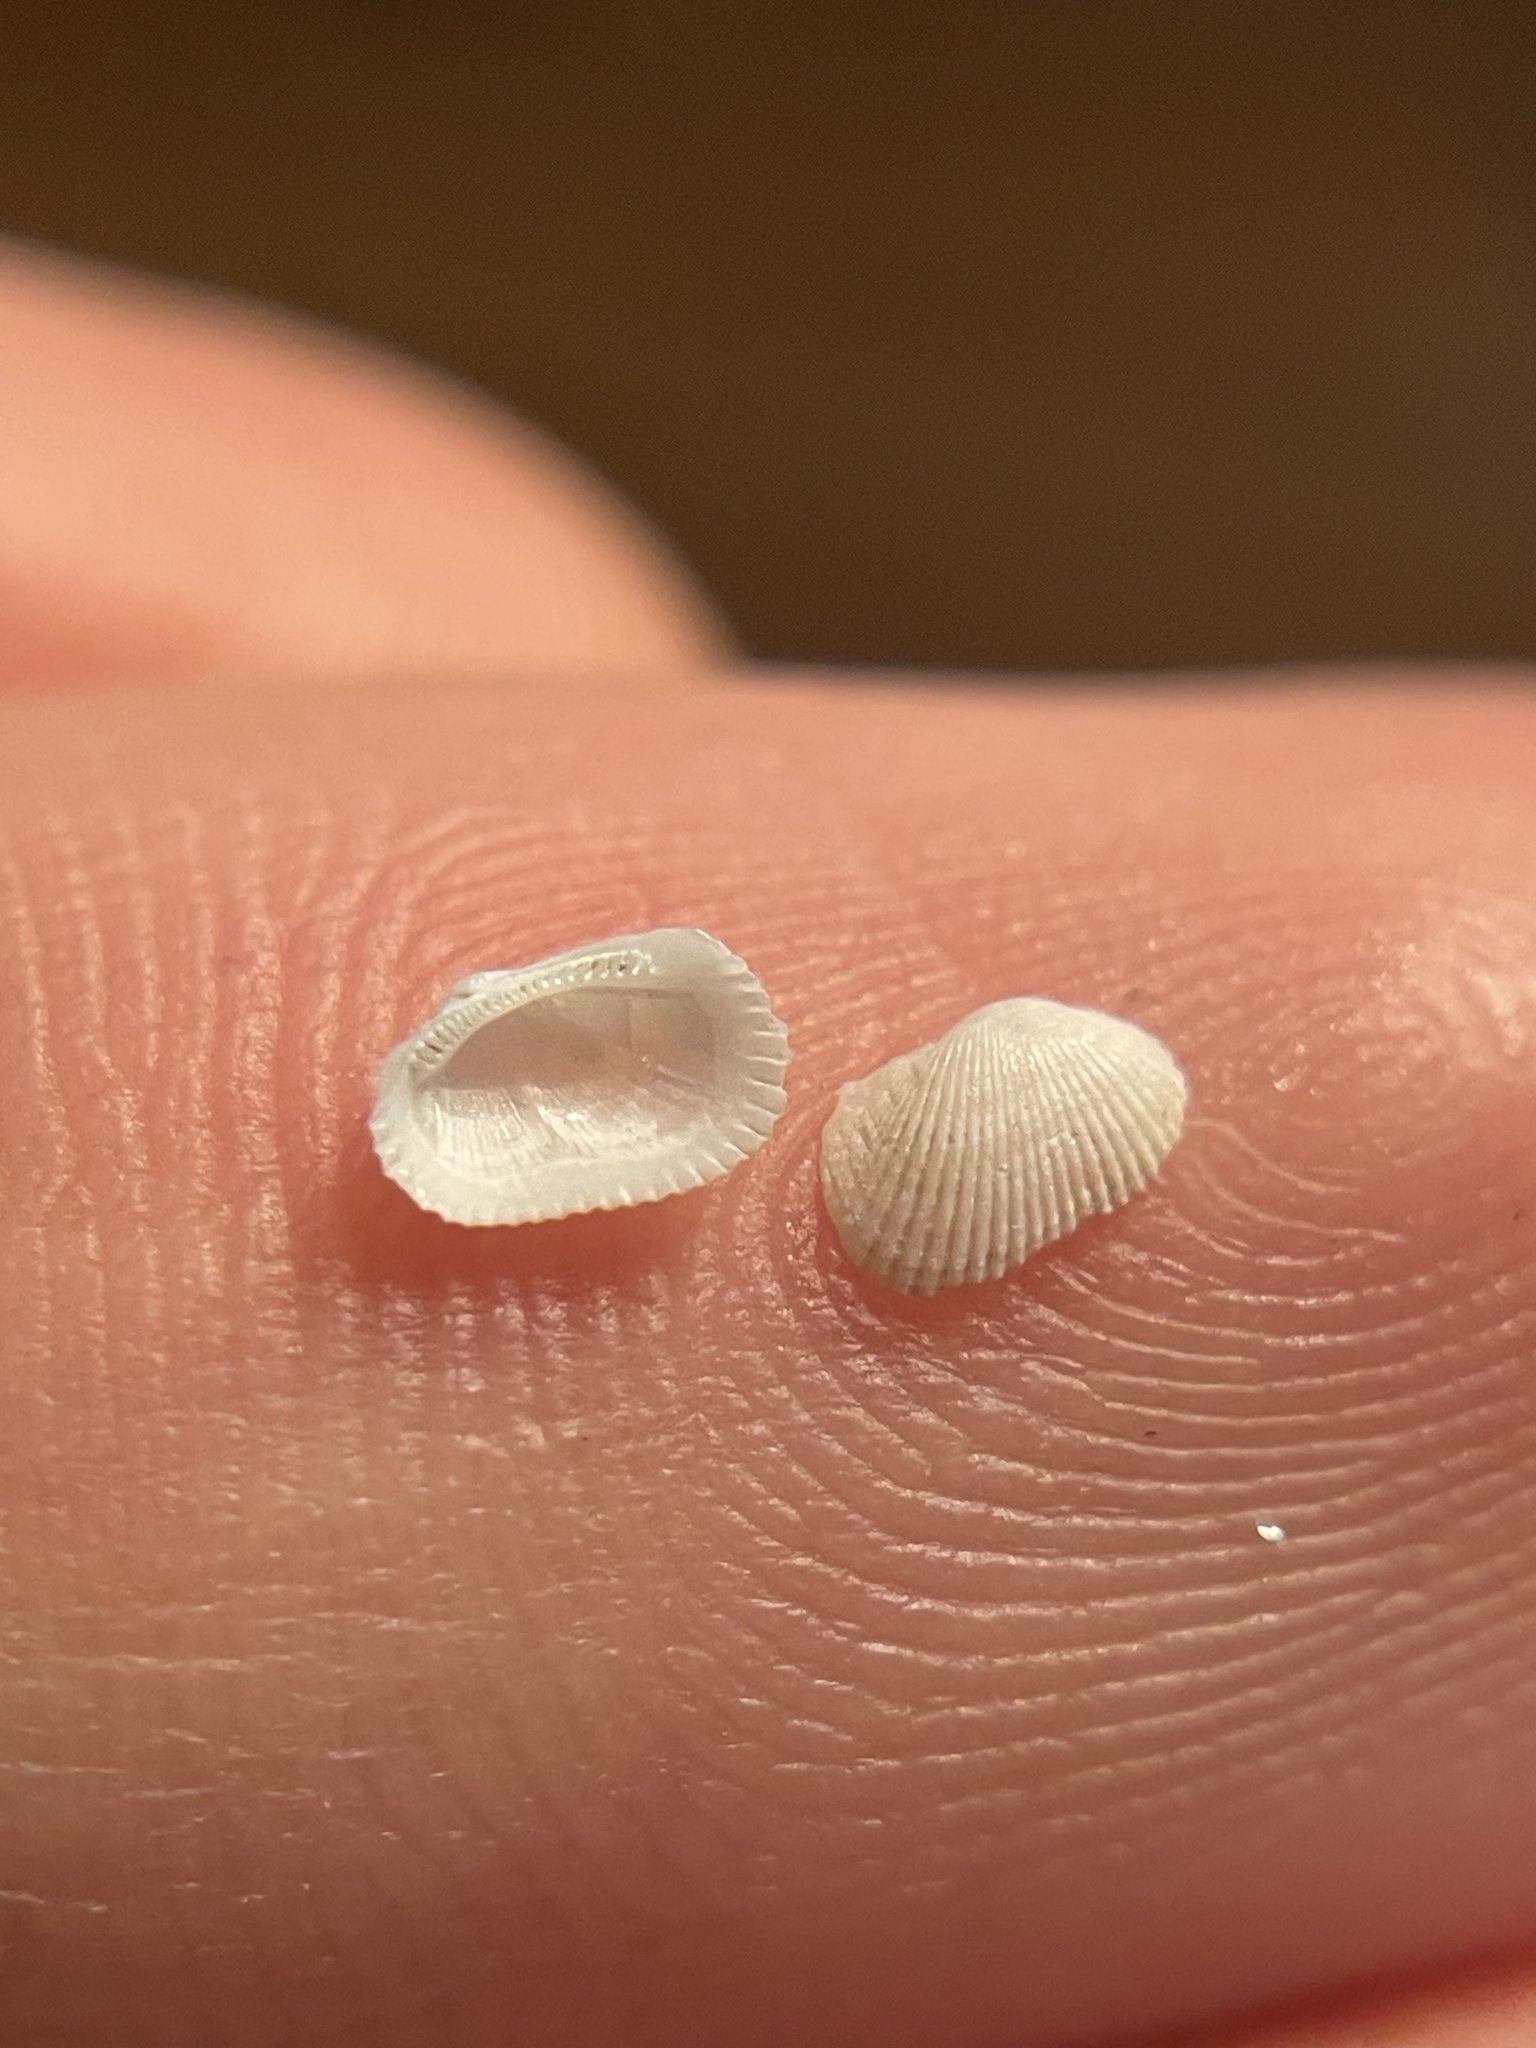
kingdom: Animalia
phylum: Mollusca
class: Bivalvia
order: Arcida
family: Arcidae
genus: Anadara
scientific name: Anadara transversa
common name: Transverse ark
